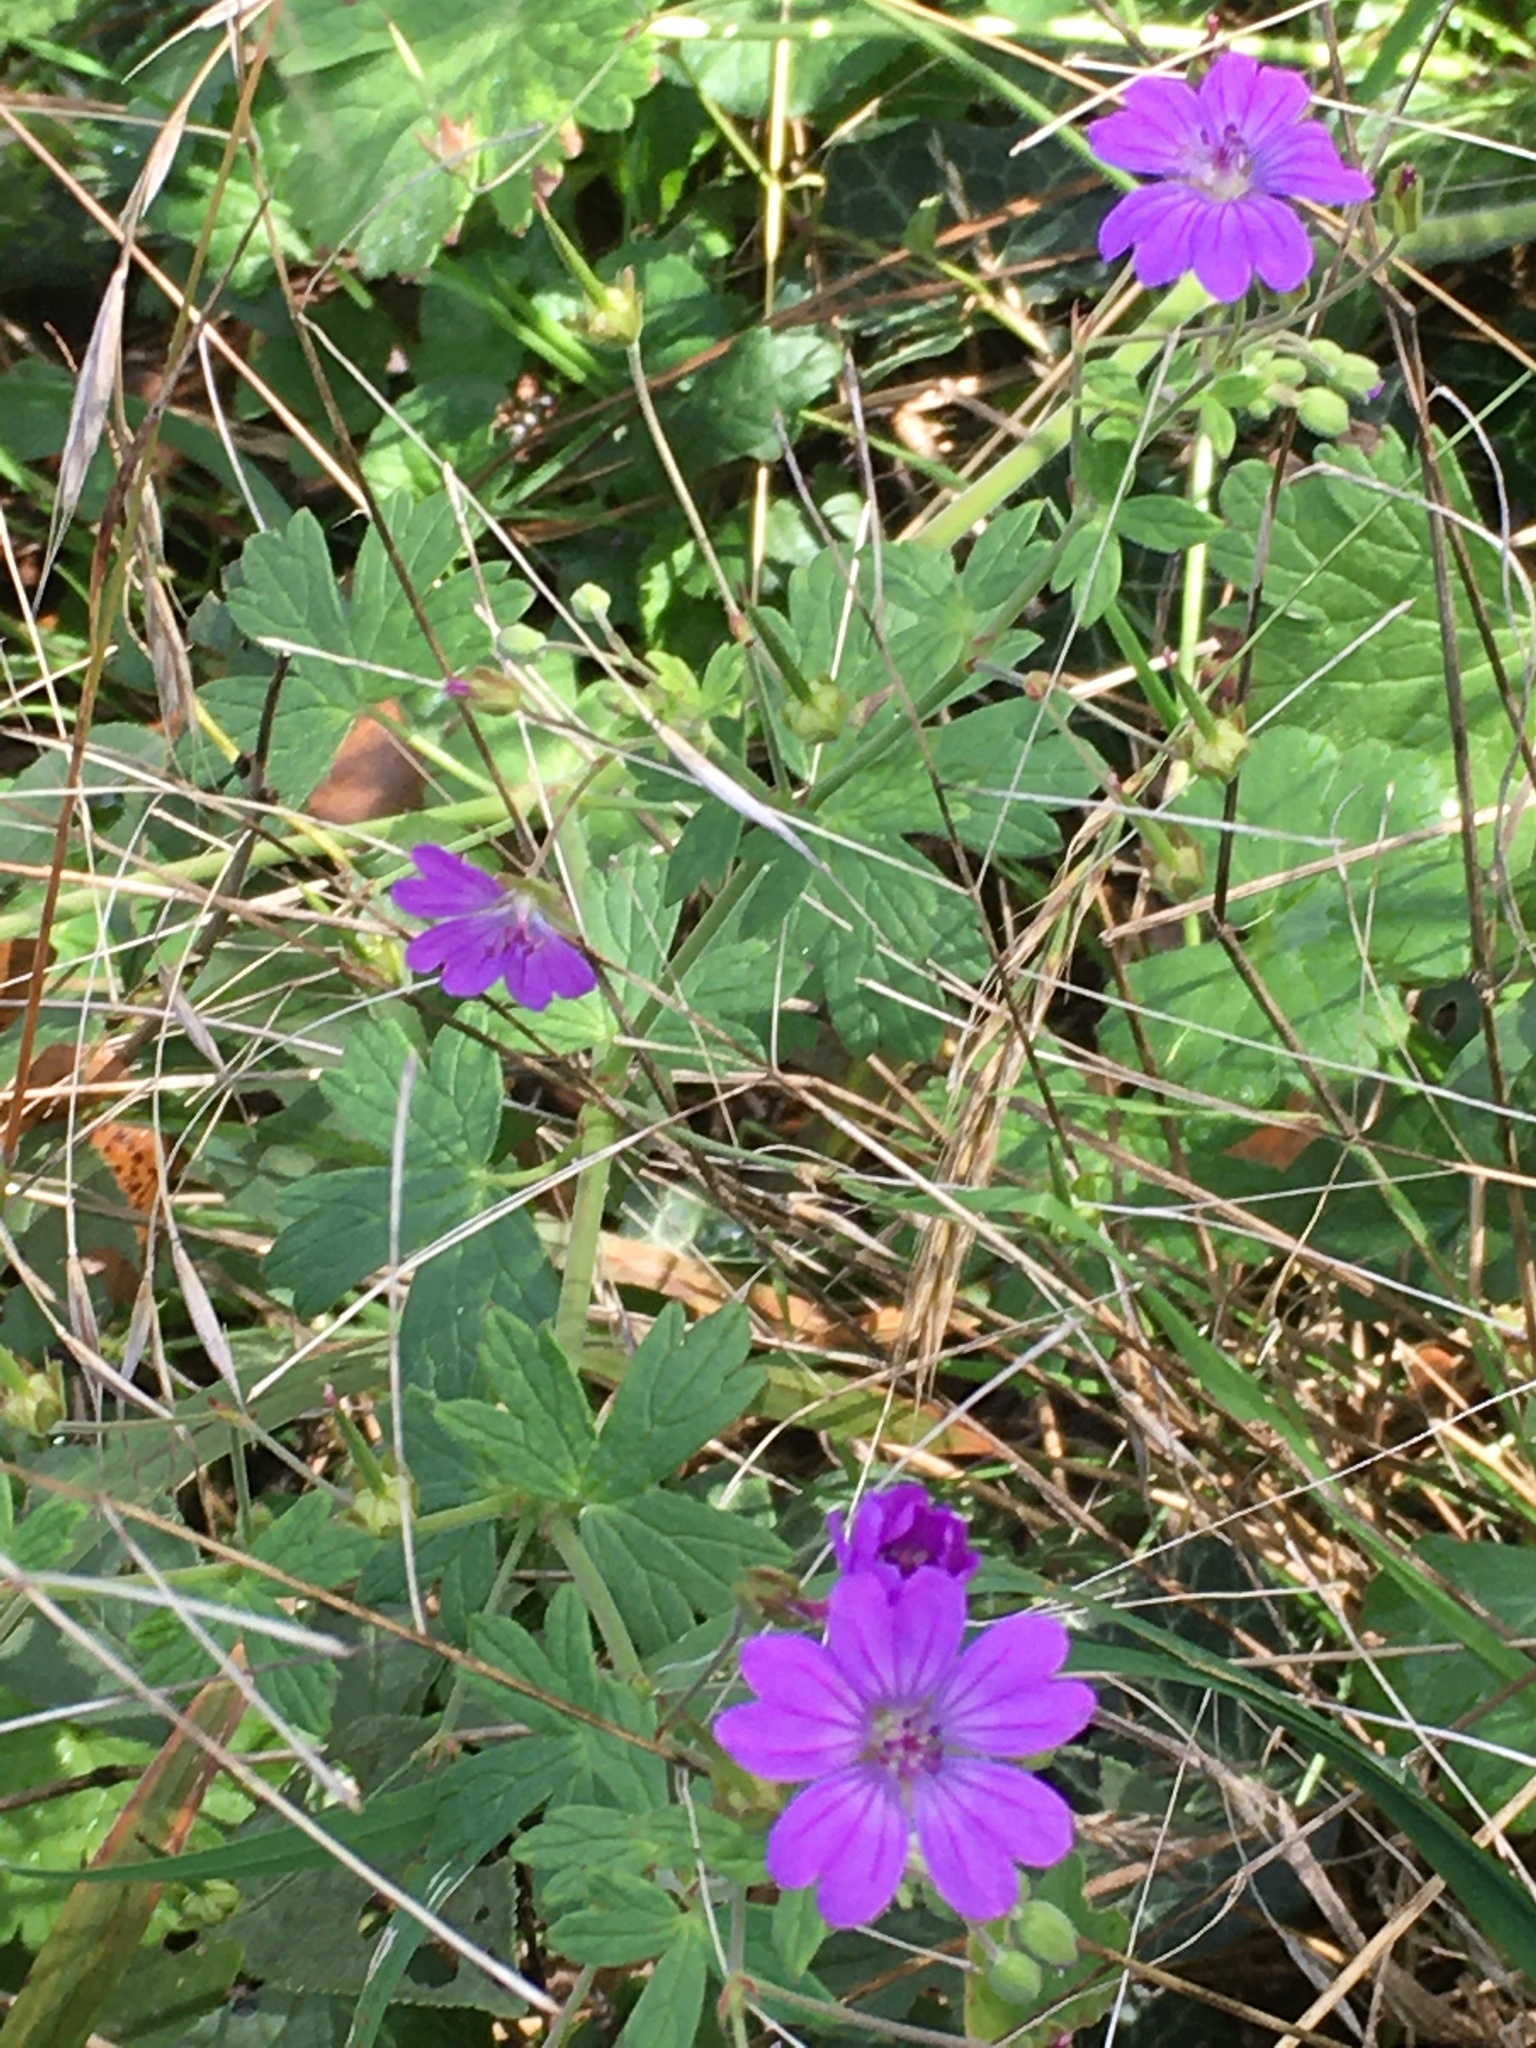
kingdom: Plantae
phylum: Tracheophyta
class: Magnoliopsida
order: Geraniales
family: Geraniaceae
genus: Geranium
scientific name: Geranium pyrenaicum
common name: Hedgerow crane's-bill
